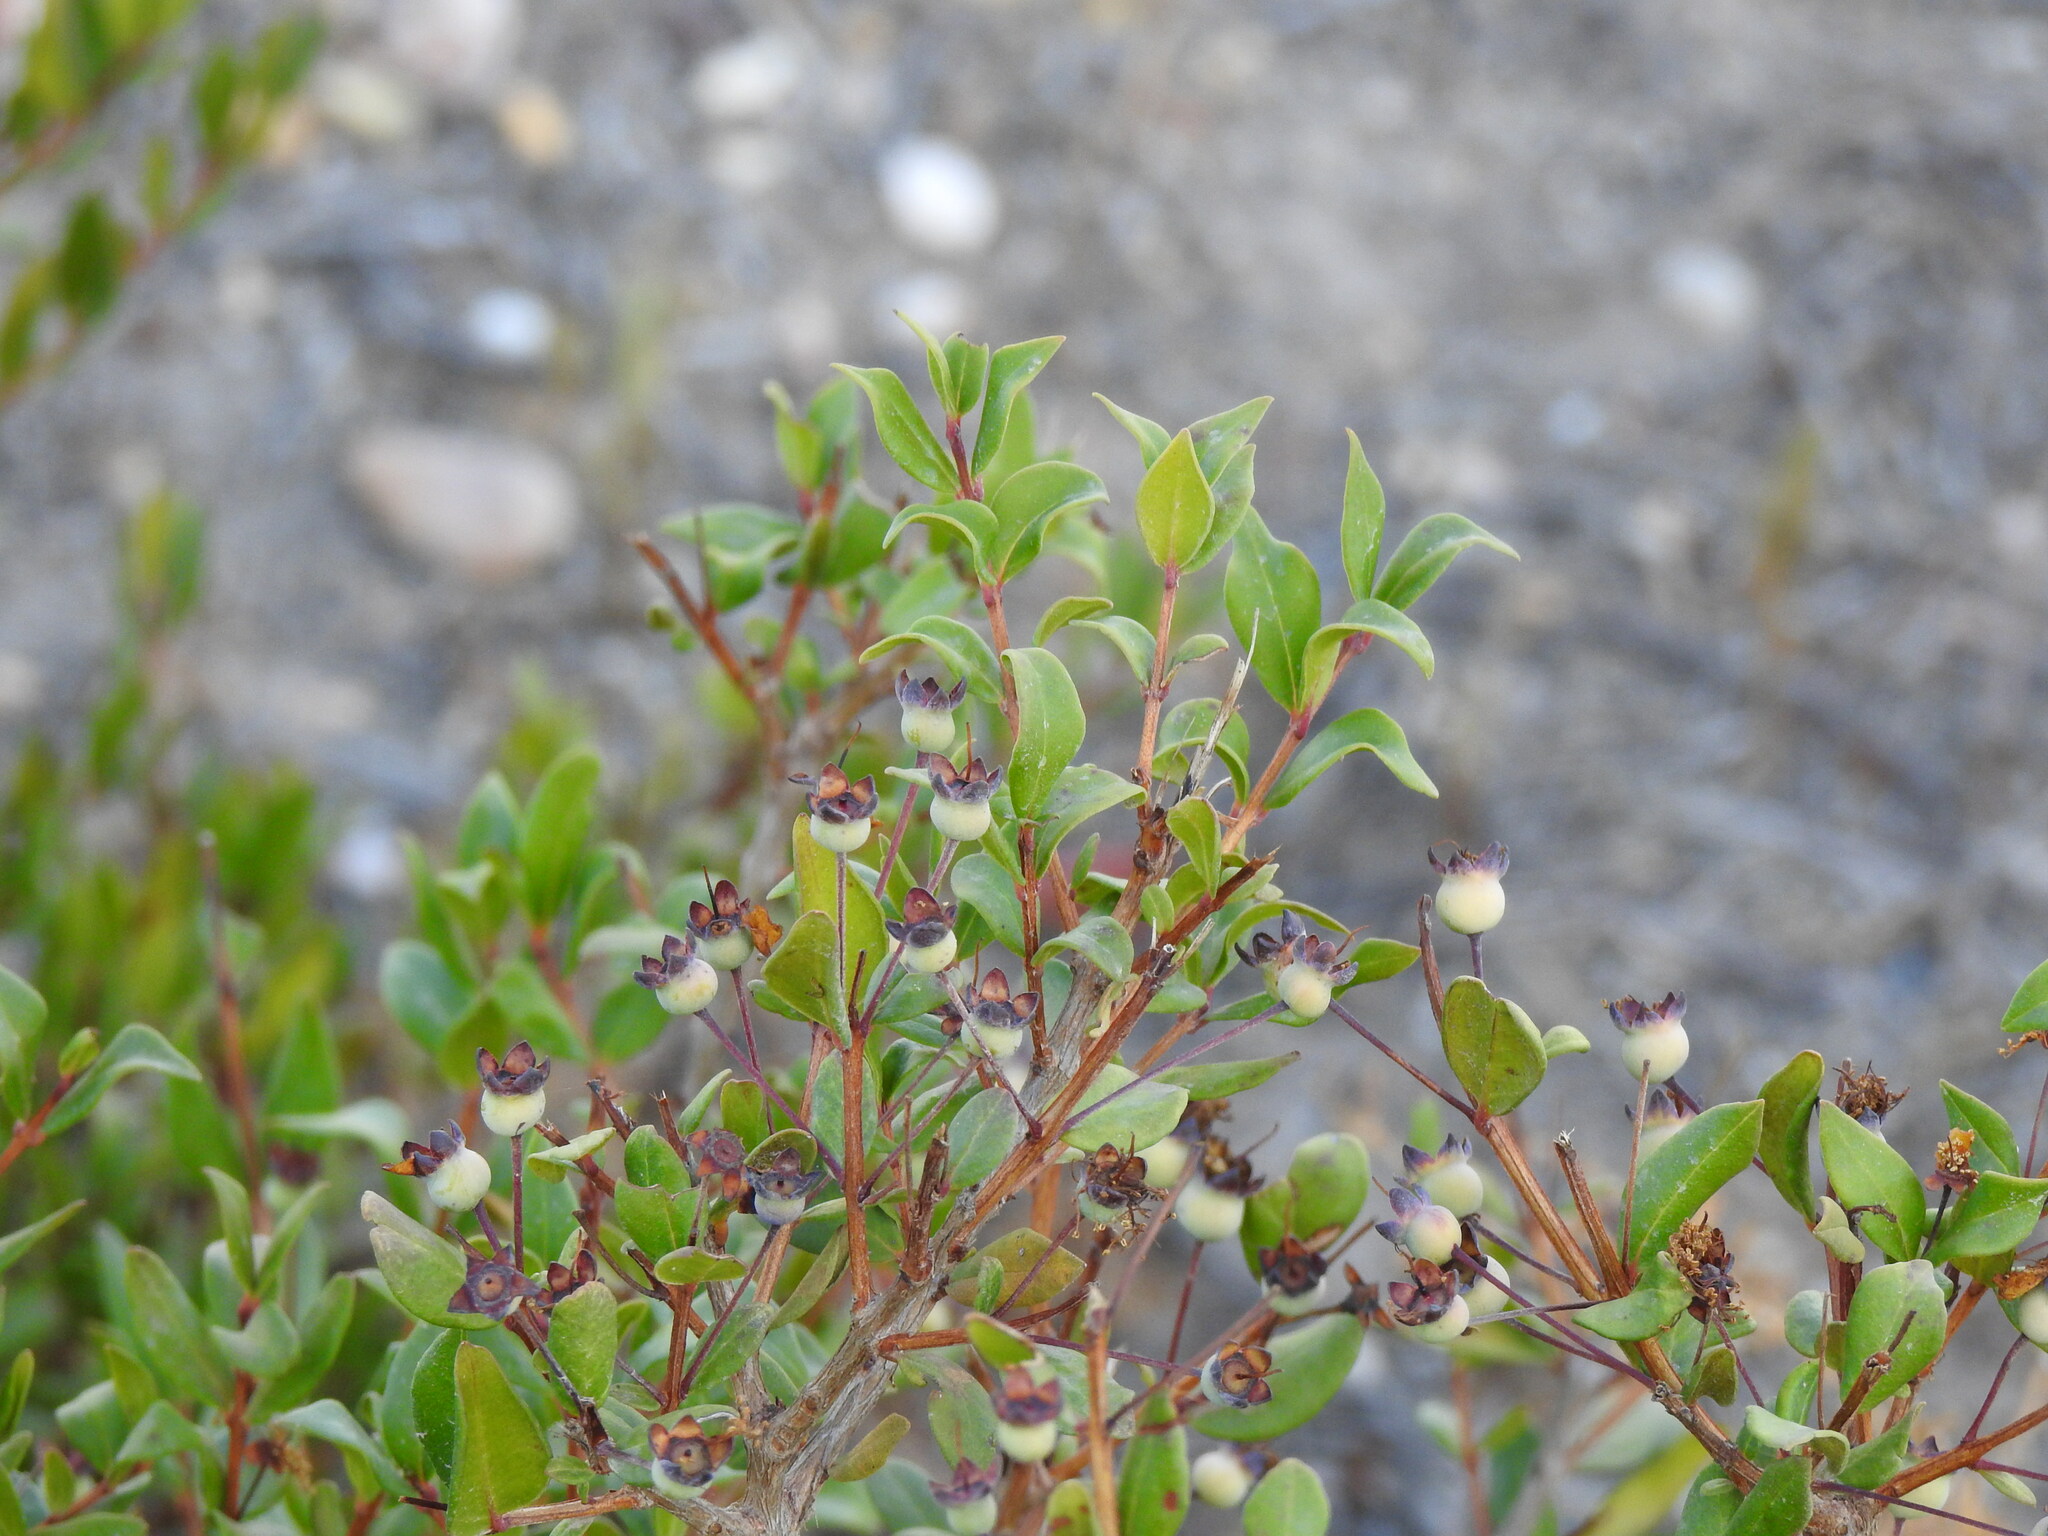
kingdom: Plantae
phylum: Tracheophyta
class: Magnoliopsida
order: Myrtales
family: Myrtaceae
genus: Myrtus
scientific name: Myrtus communis
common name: Myrtle
